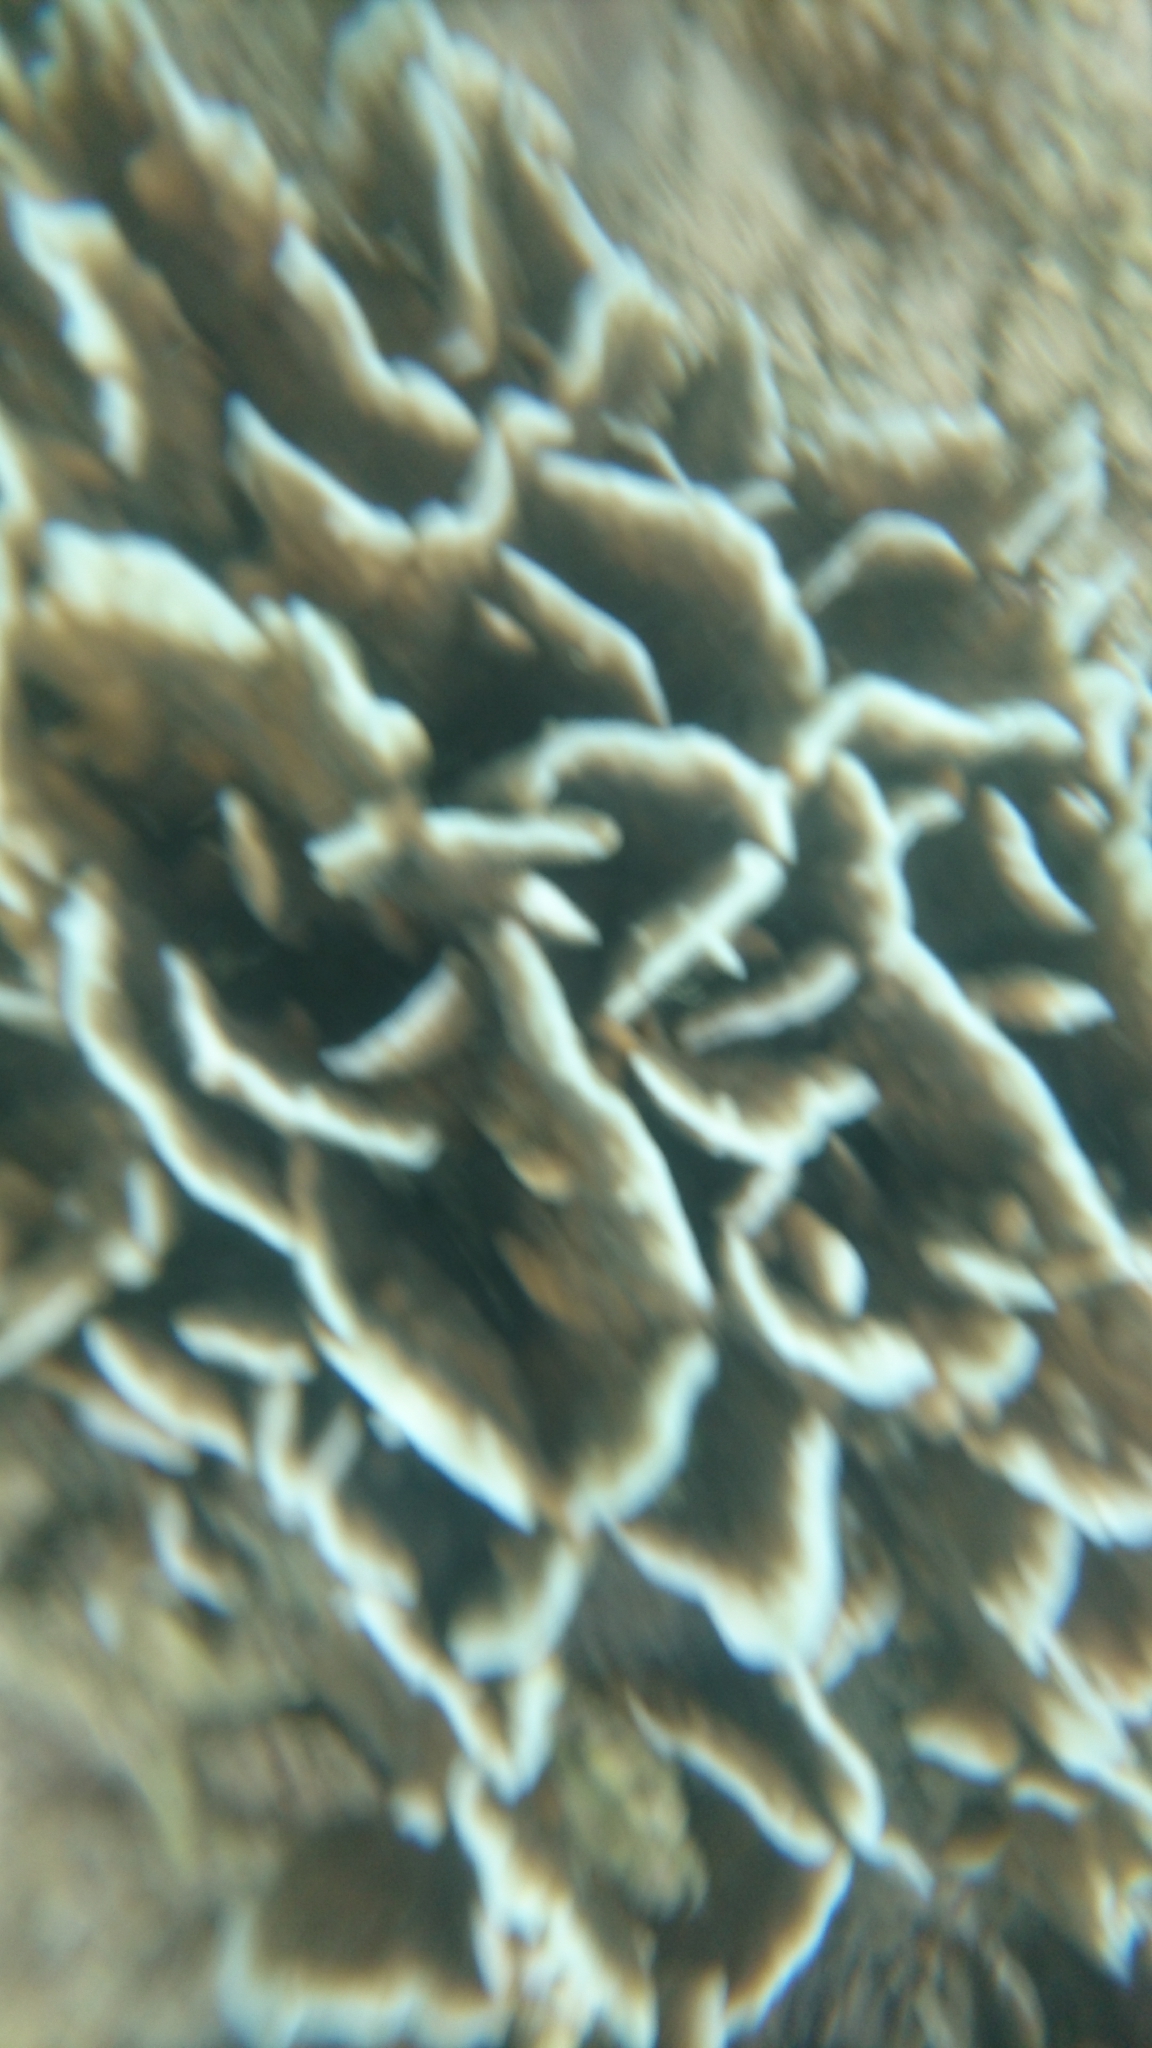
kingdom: Animalia
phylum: Cnidaria
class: Anthozoa
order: Scleractinia
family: Agariciidae
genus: Pavona
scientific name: Pavona frondifera
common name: Leaf coral
